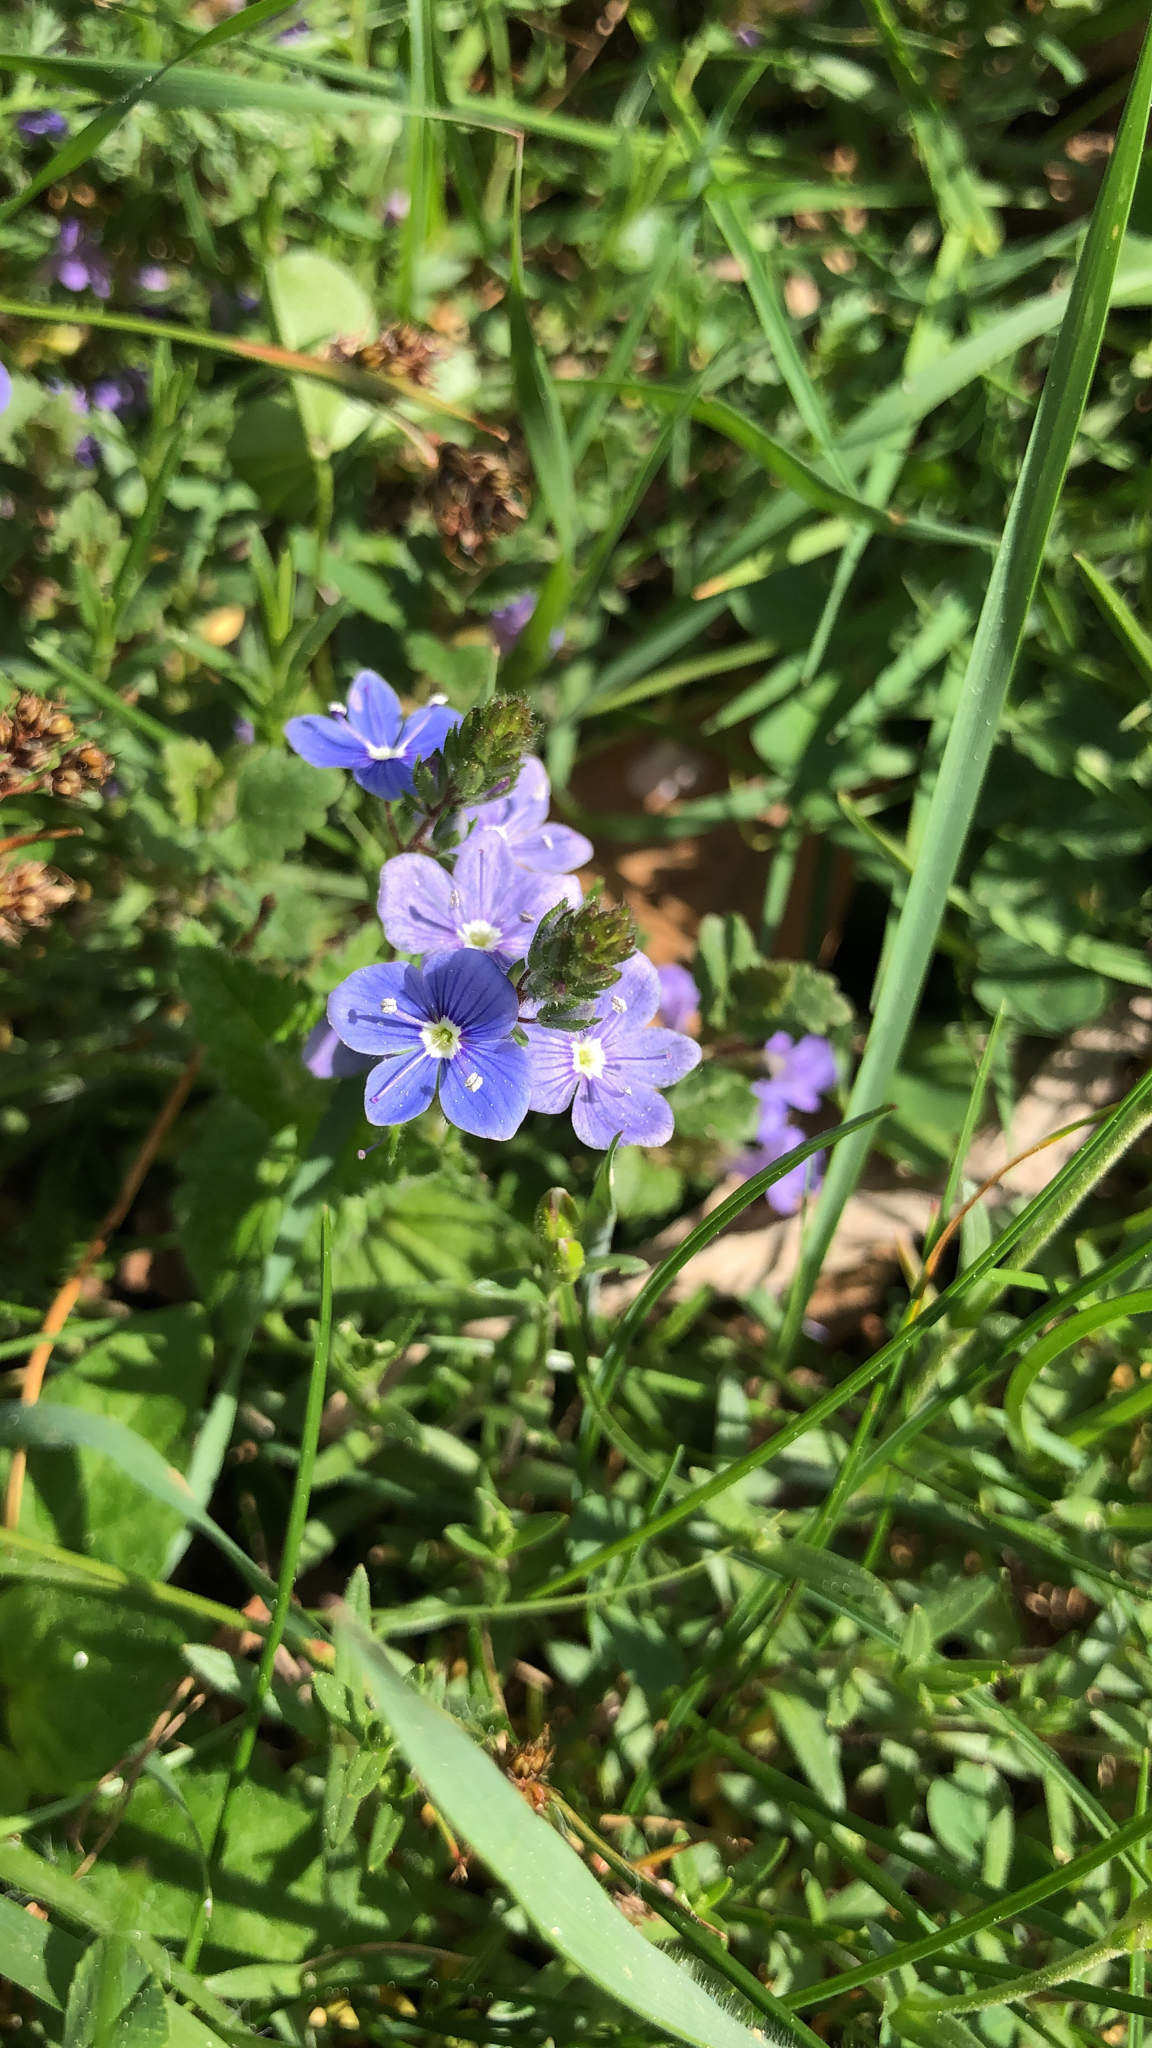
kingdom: Plantae
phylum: Tracheophyta
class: Magnoliopsida
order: Lamiales
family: Plantaginaceae
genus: Veronica
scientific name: Veronica chamaedrys
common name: Germander speedwell
